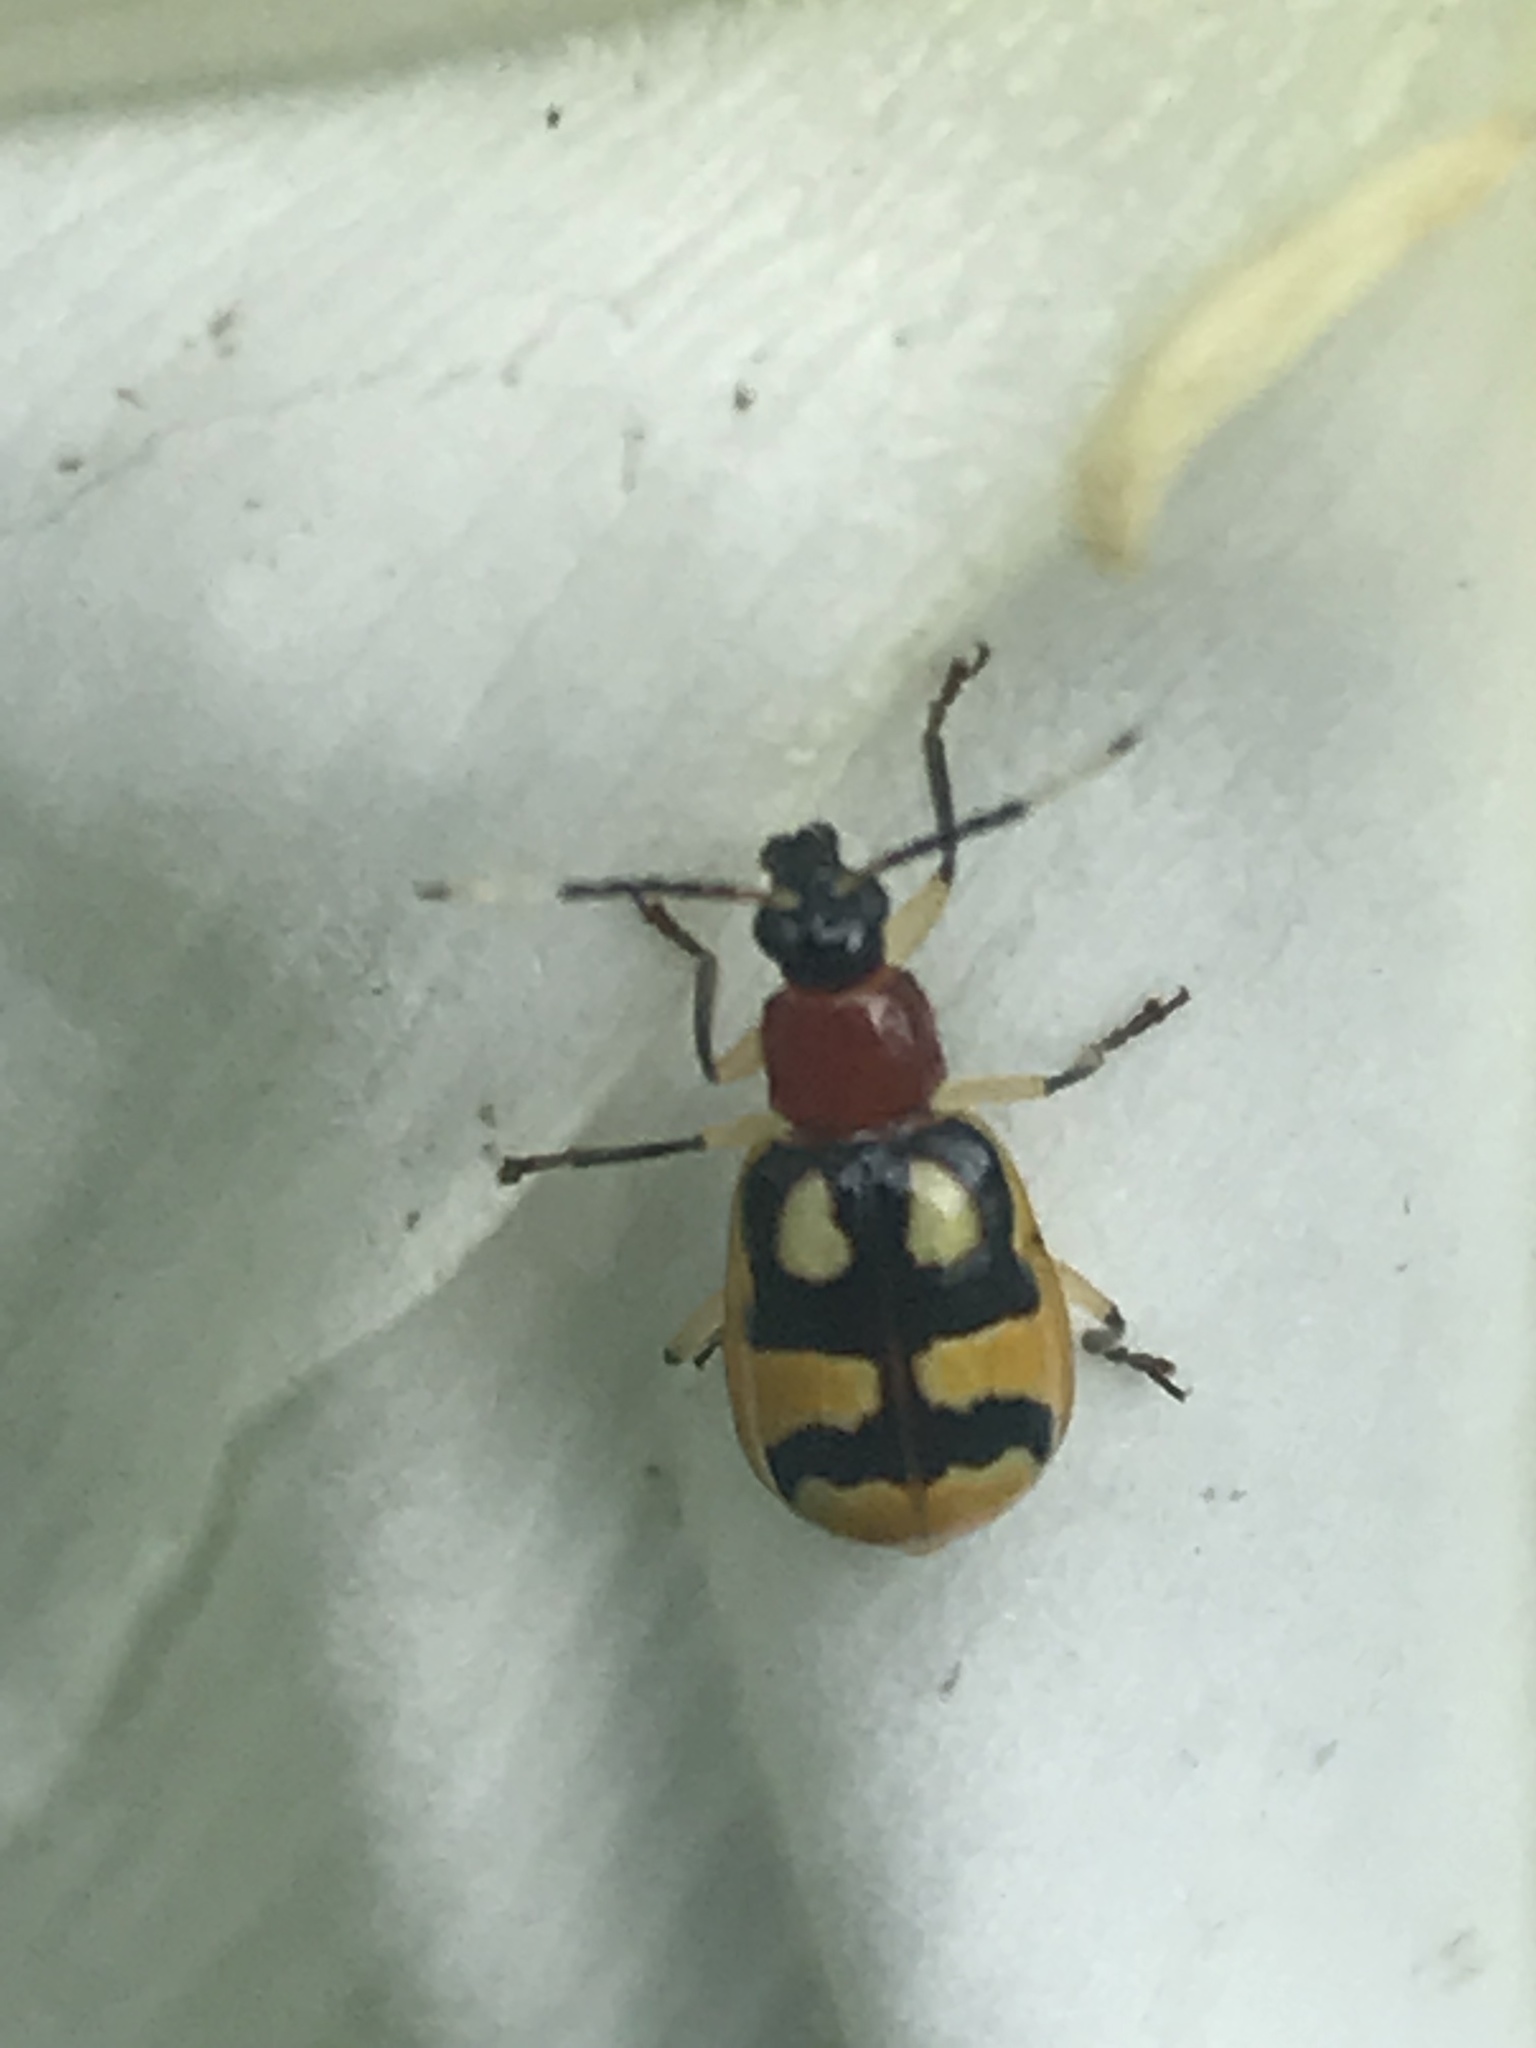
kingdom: Animalia
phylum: Arthropoda
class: Insecta
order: Coleoptera
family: Chrysomelidae
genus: Diabrotica
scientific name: Diabrotica adelpha
